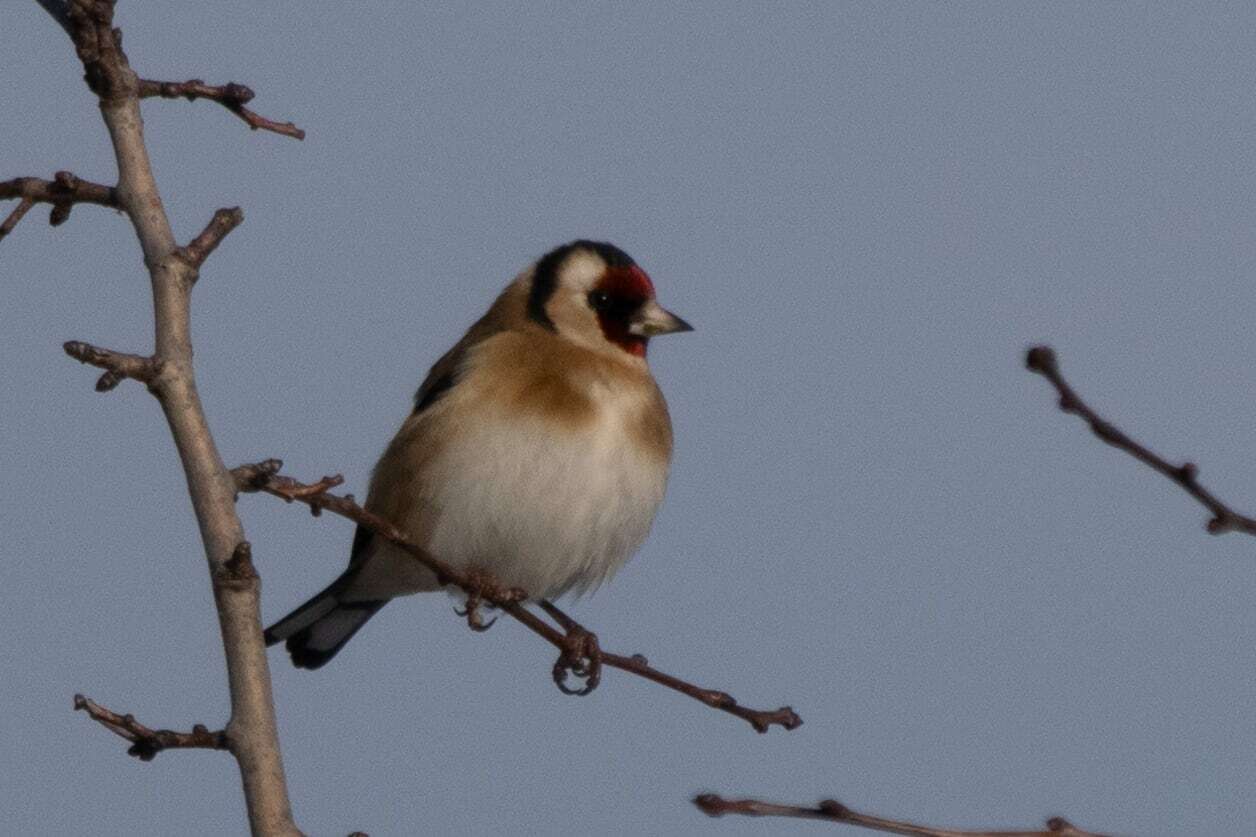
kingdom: Animalia
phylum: Chordata
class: Aves
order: Passeriformes
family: Fringillidae
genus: Carduelis
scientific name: Carduelis carduelis
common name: European goldfinch
